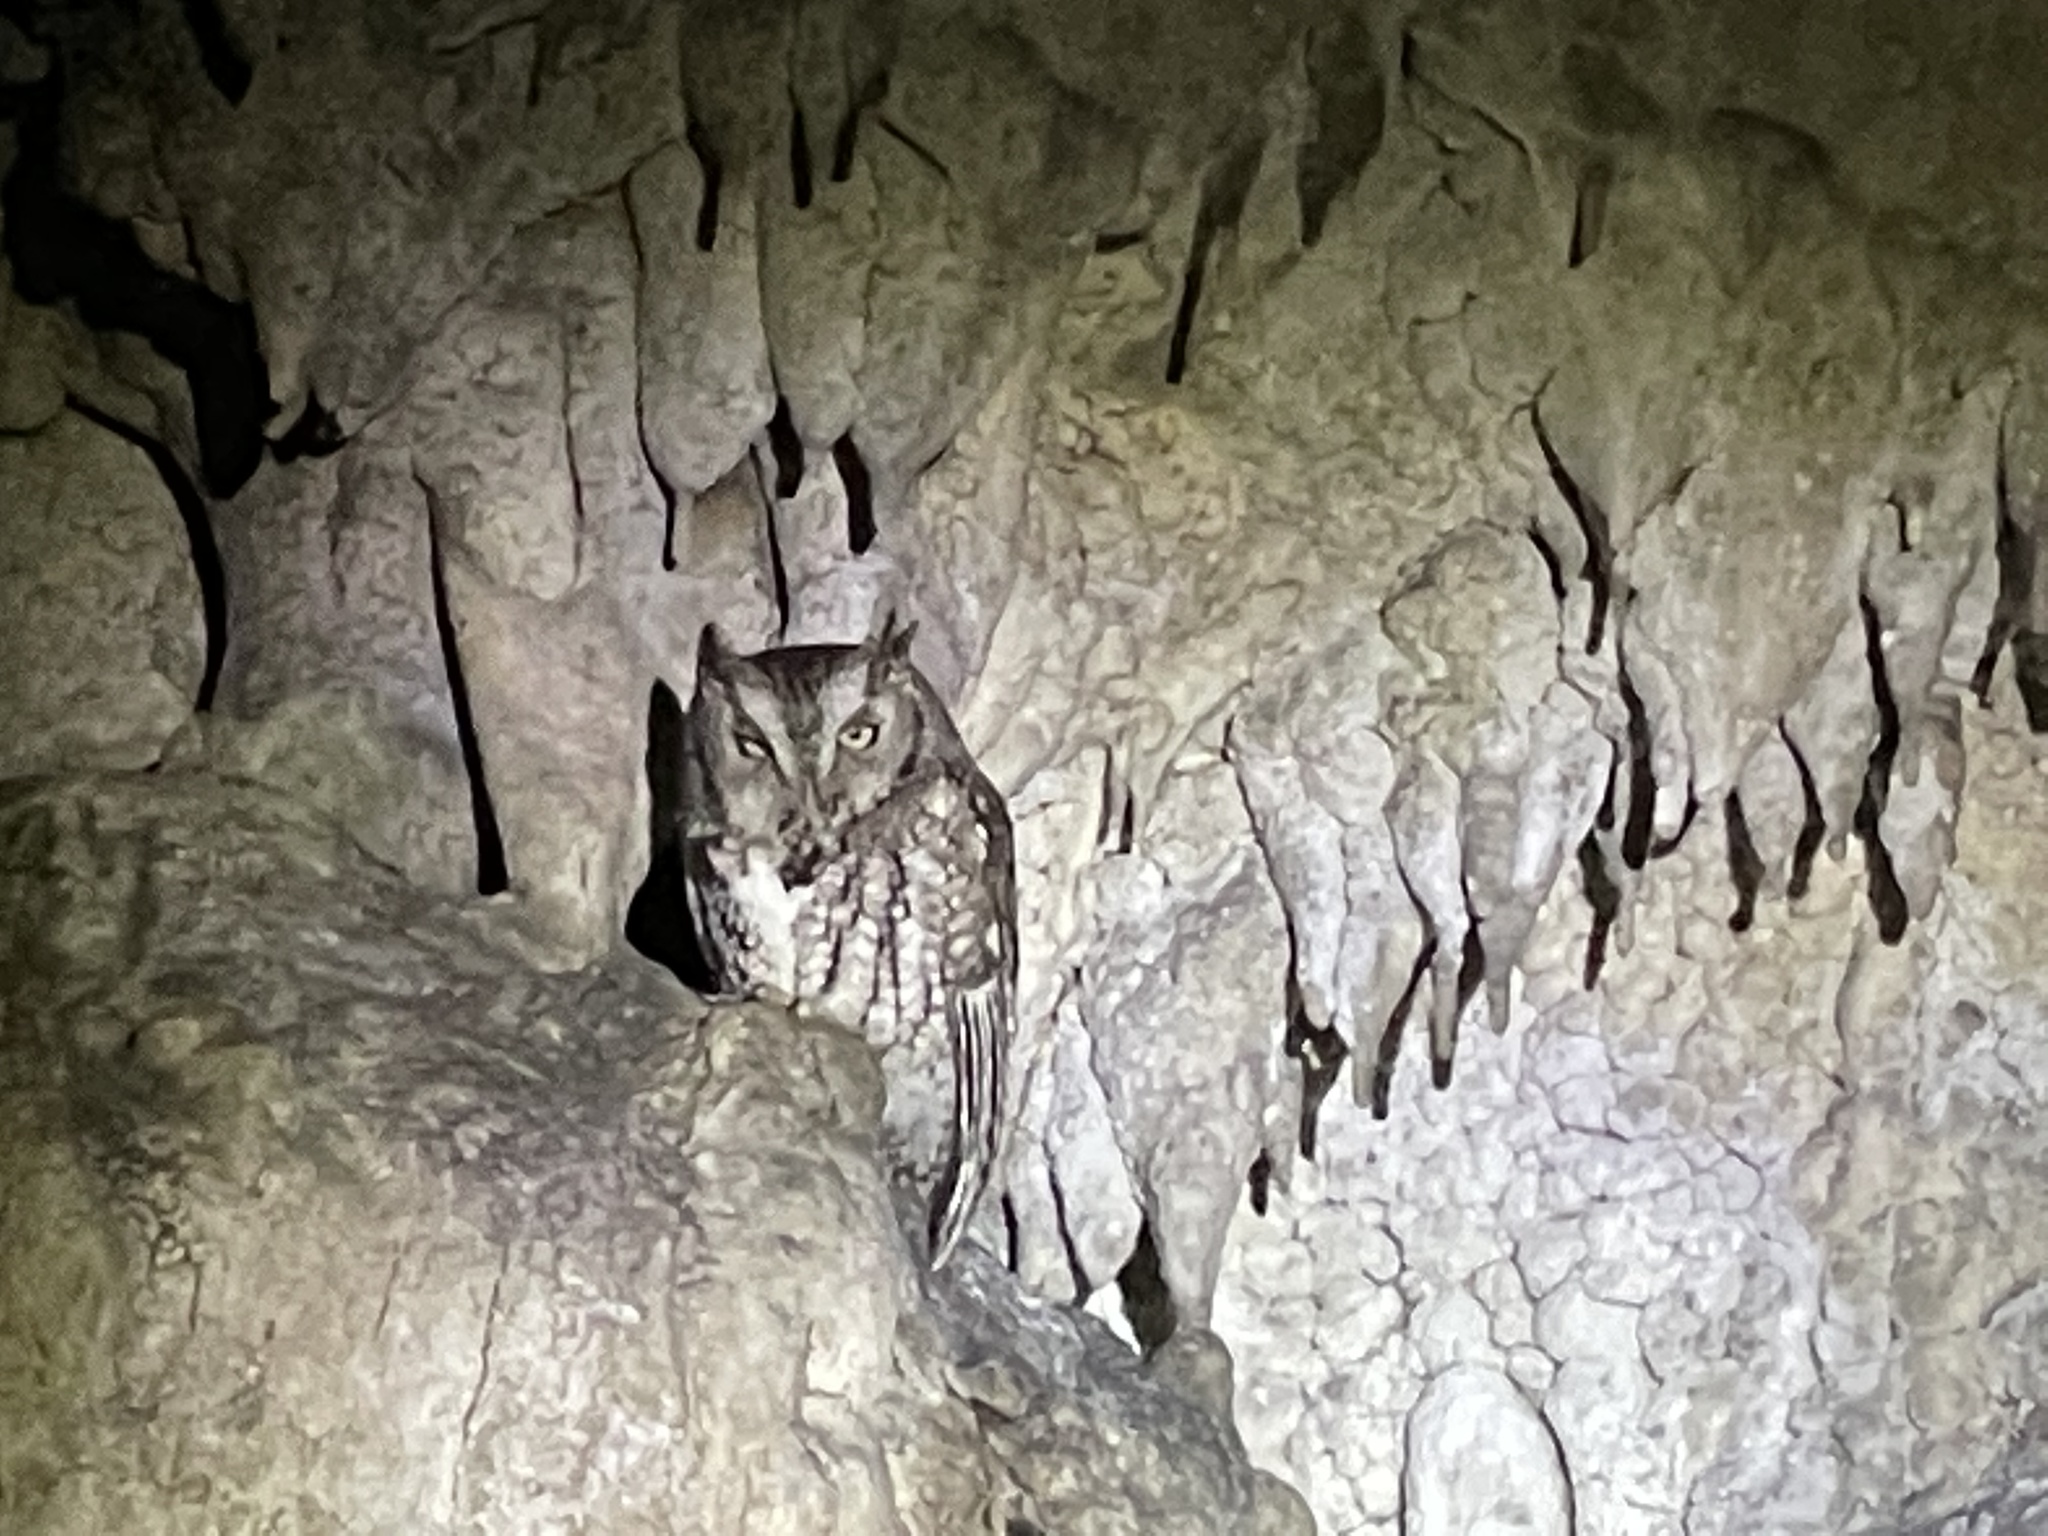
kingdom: Animalia
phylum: Chordata
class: Aves
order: Strigiformes
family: Strigidae
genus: Megascops
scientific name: Megascops asio
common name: Eastern screech-owl
